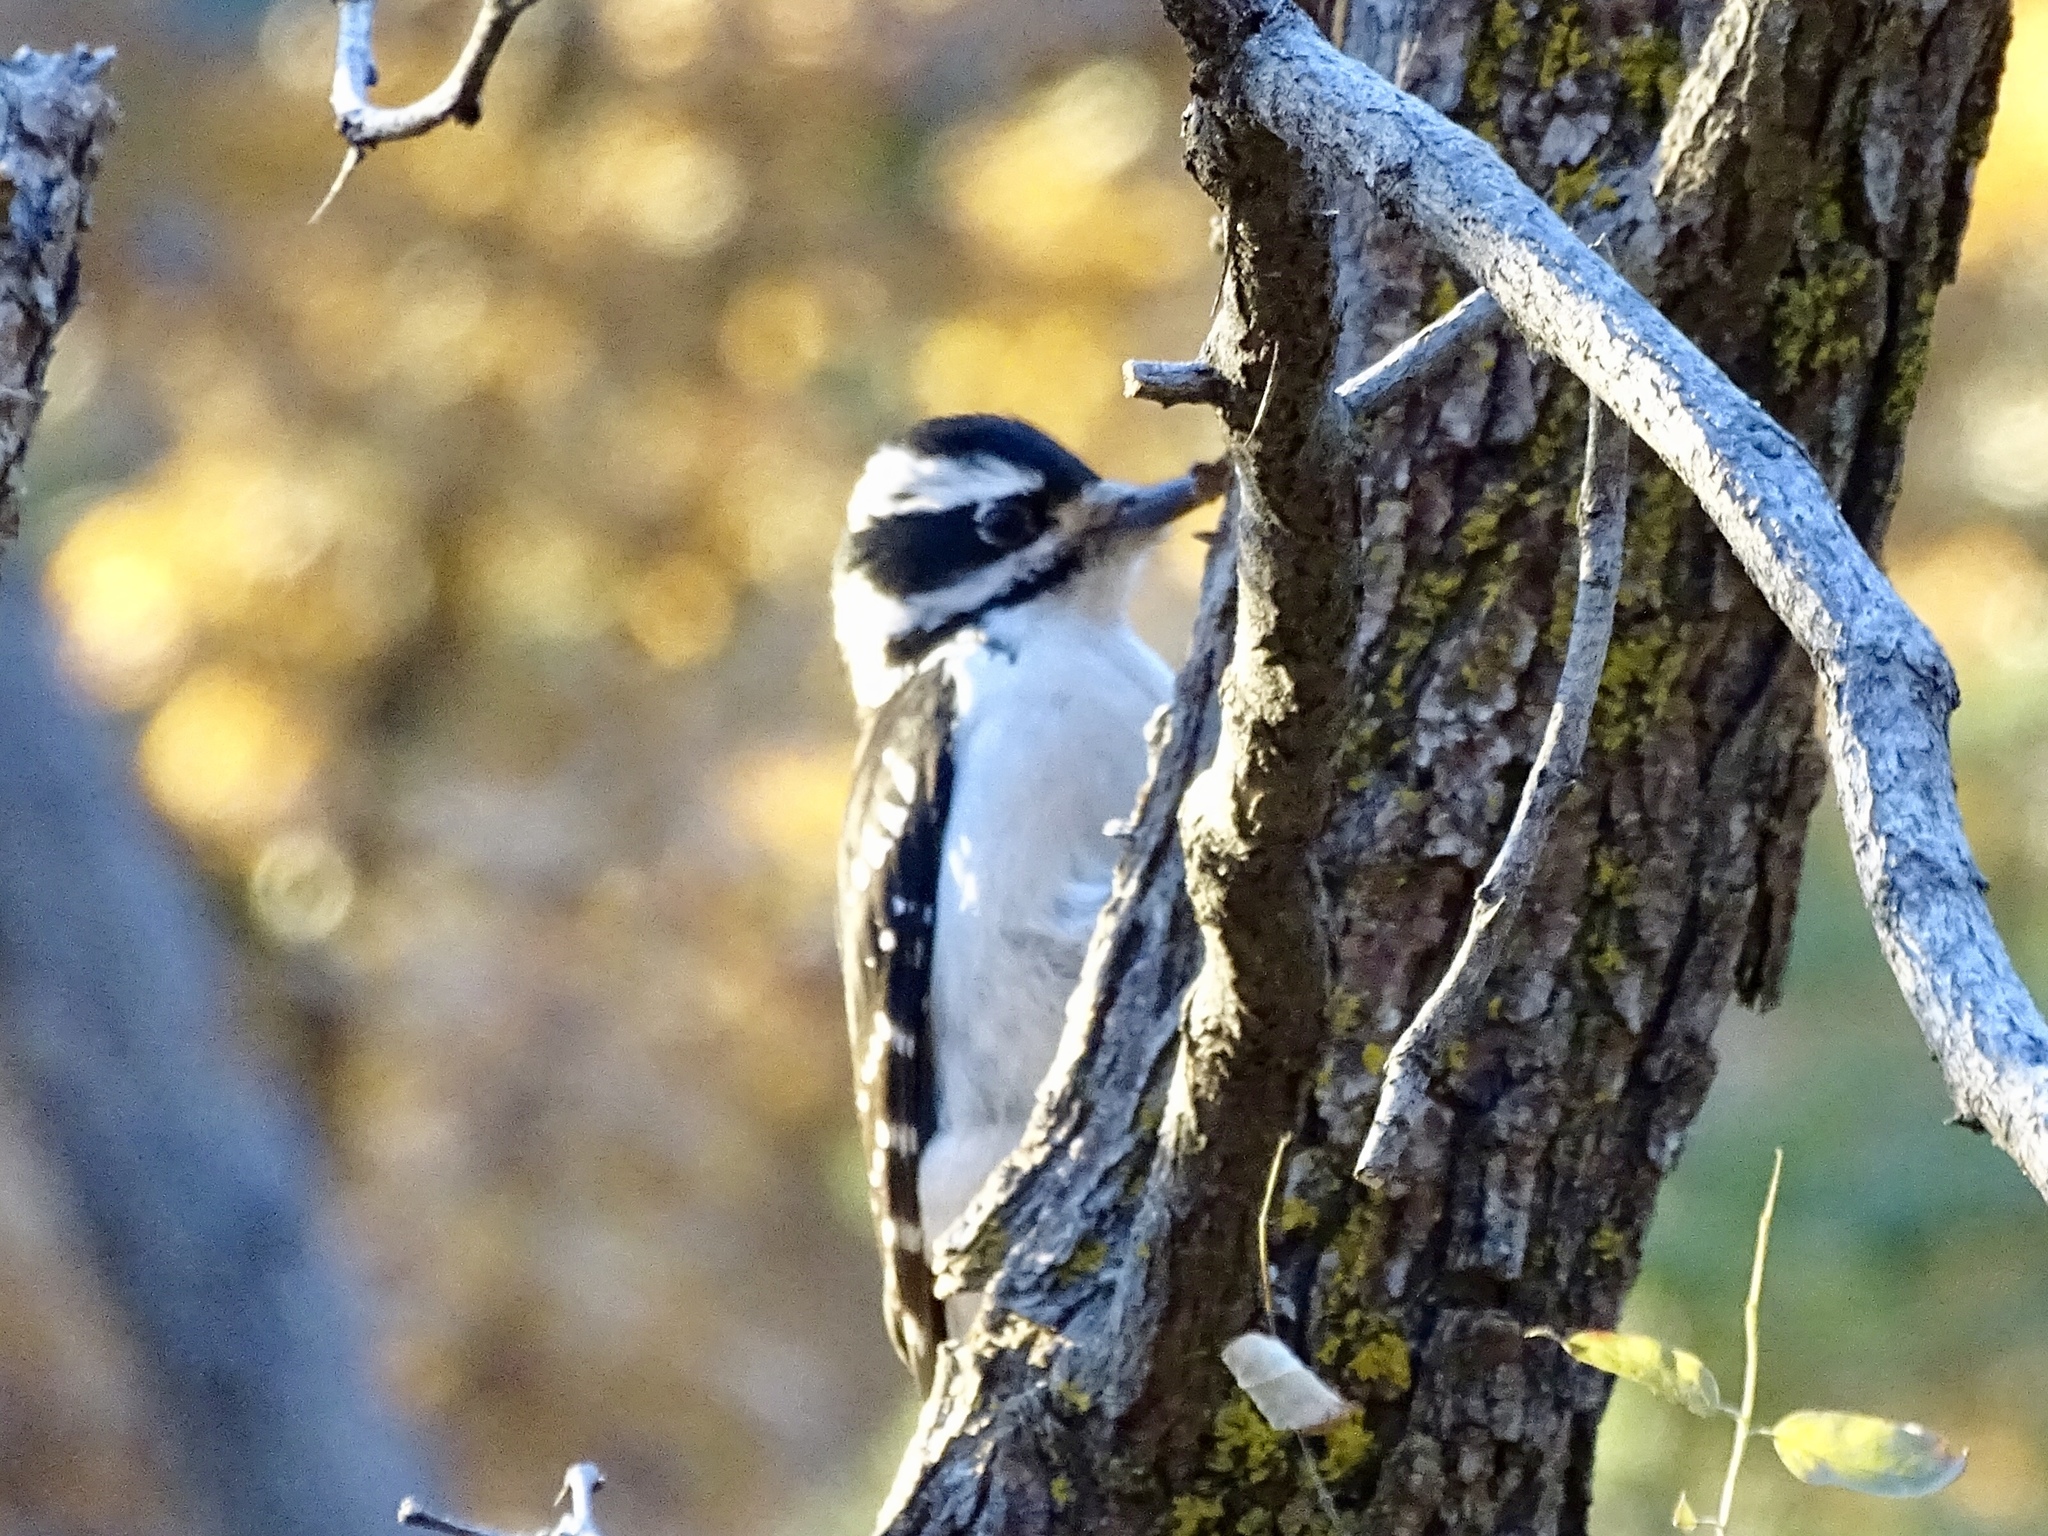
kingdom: Animalia
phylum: Chordata
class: Aves
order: Piciformes
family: Picidae
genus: Leuconotopicus
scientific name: Leuconotopicus villosus
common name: Hairy woodpecker
